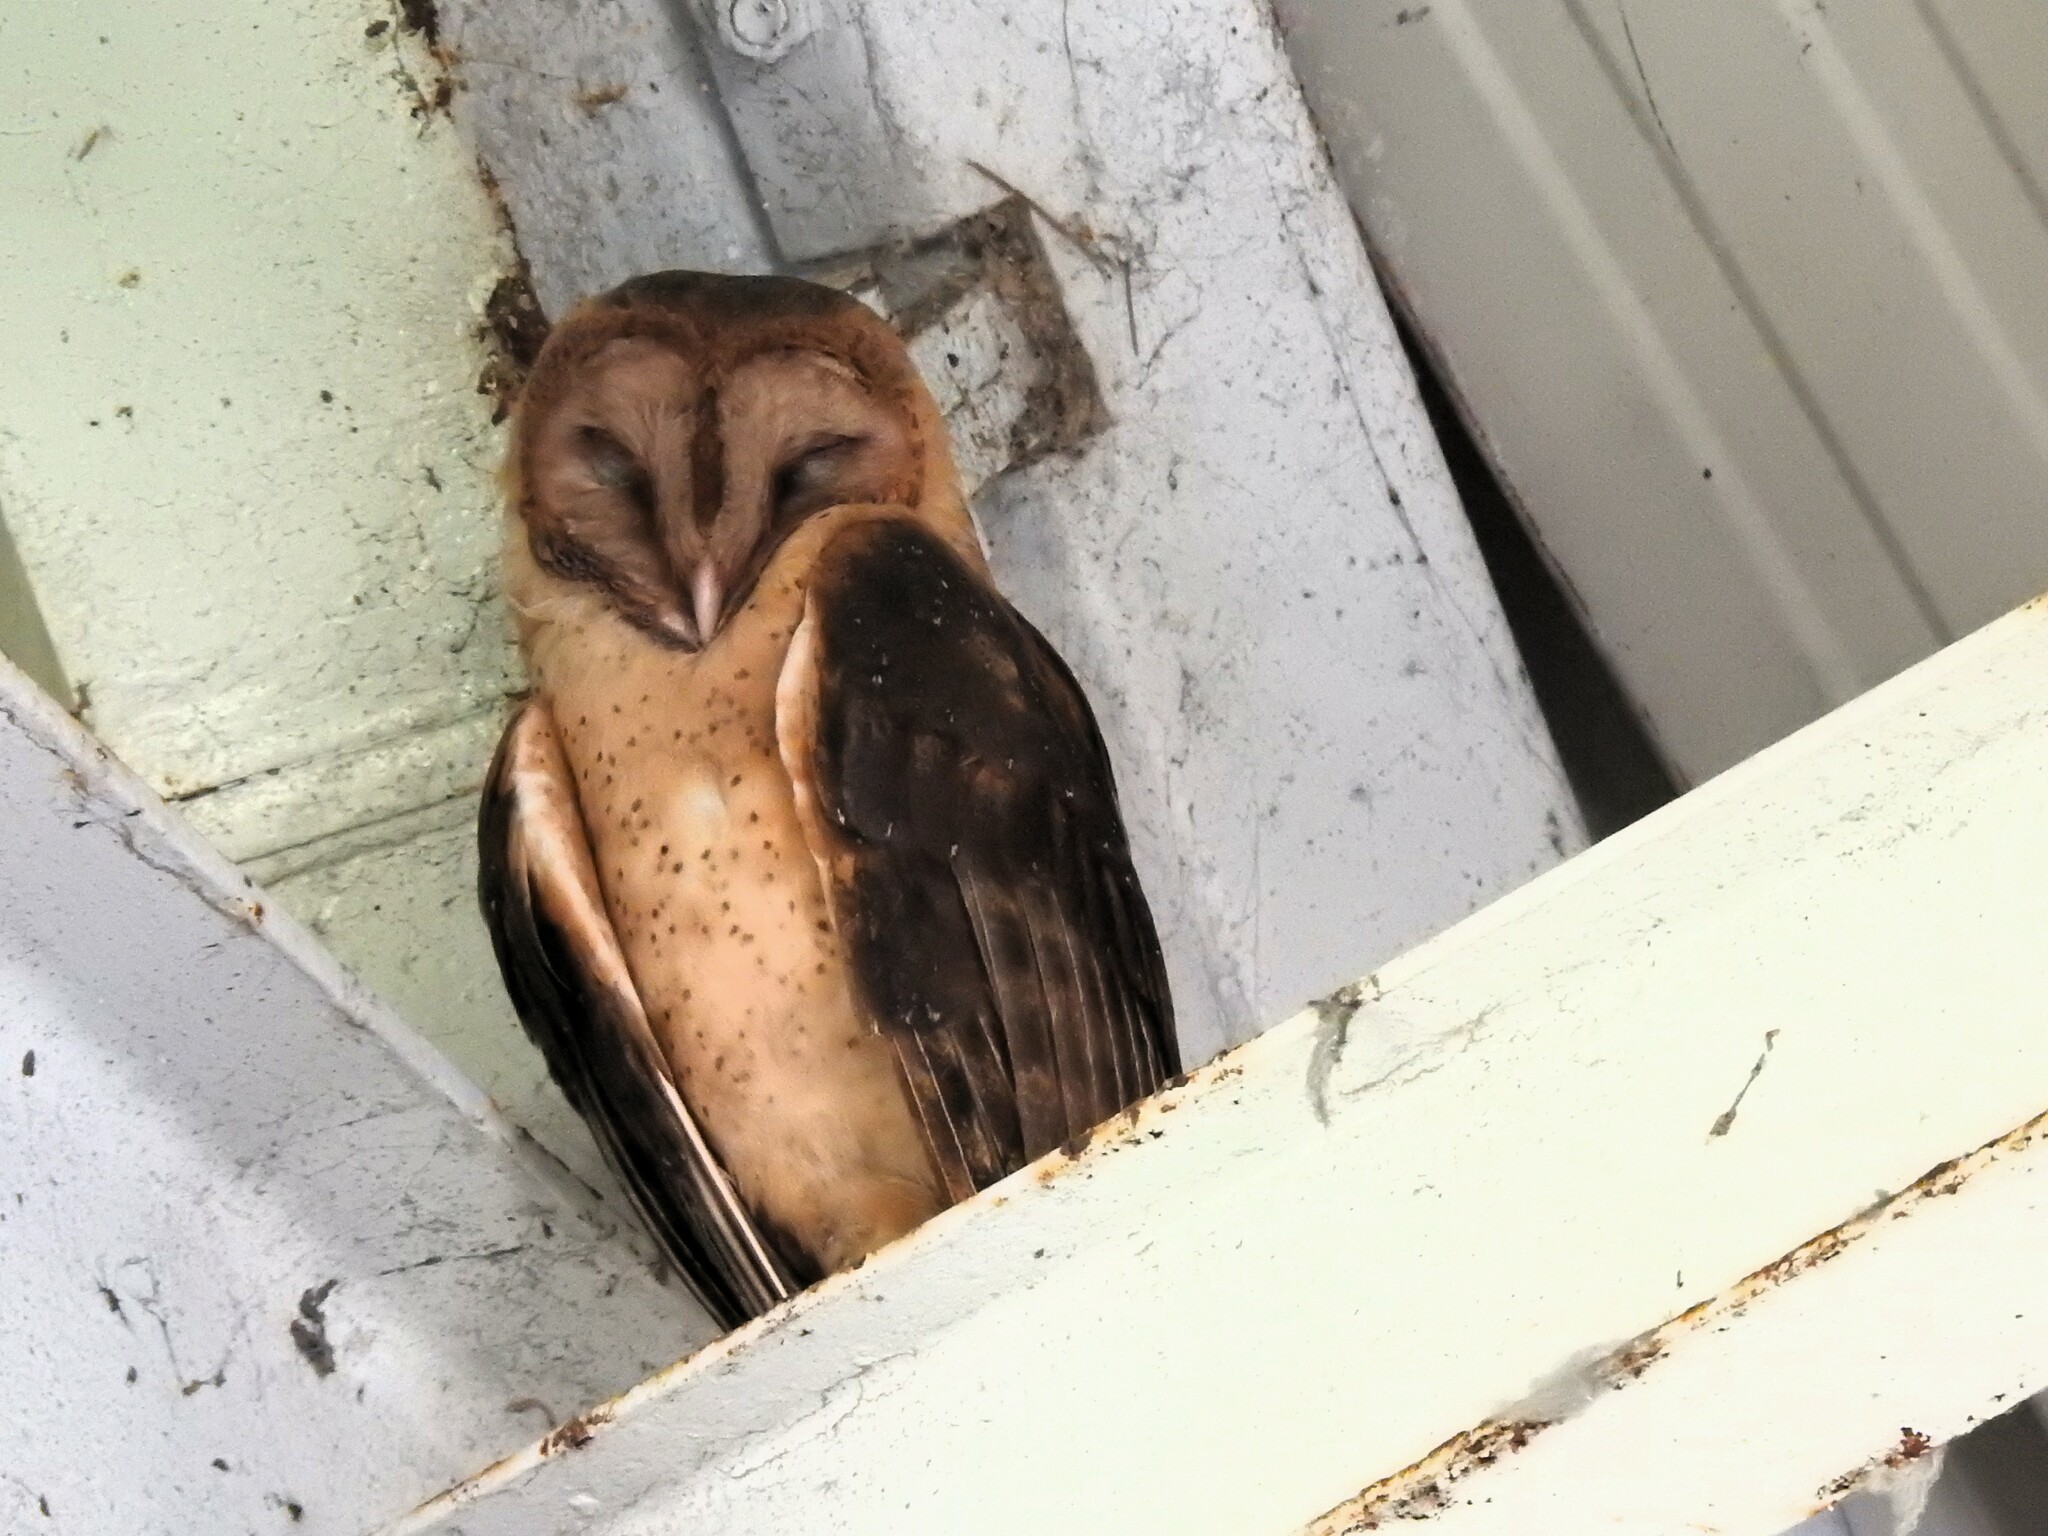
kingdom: Animalia
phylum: Chordata
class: Aves
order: Strigiformes
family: Tytonidae
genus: Tyto
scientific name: Tyto furcata
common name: American barn owl
